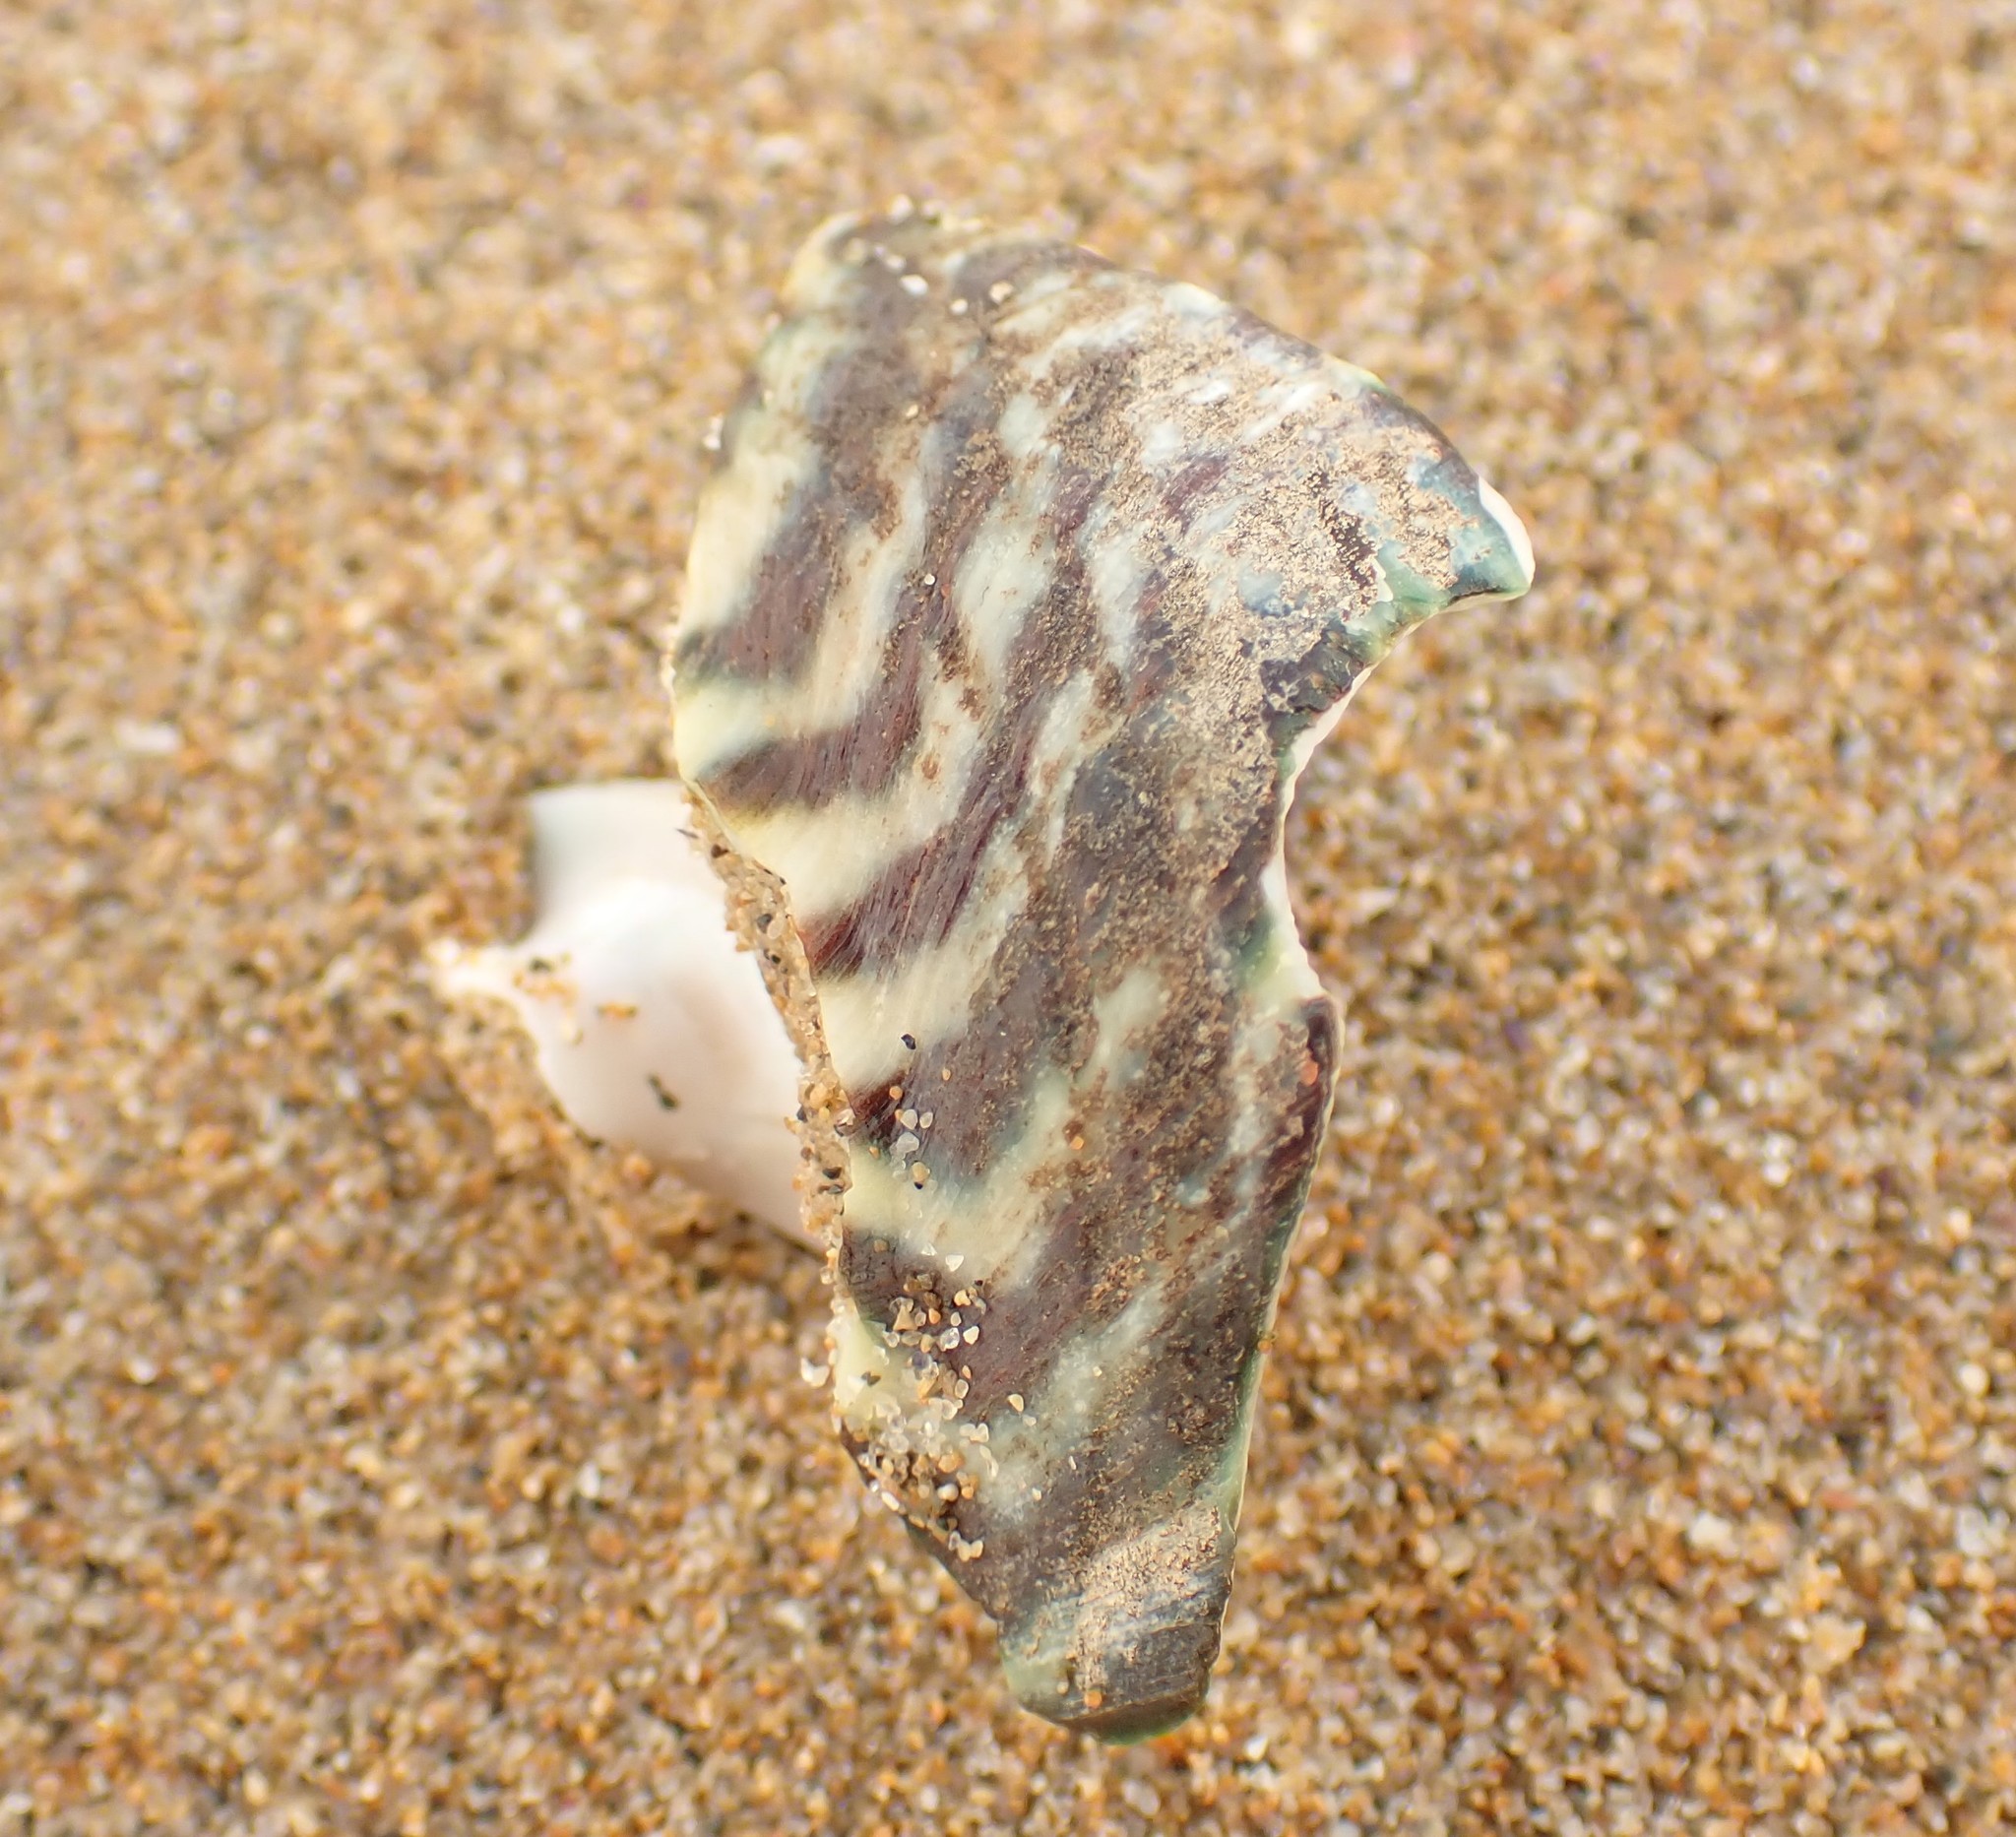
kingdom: Animalia
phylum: Mollusca
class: Gastropoda
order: Trochida
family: Turbinidae
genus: Lunella
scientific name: Lunella undulata
